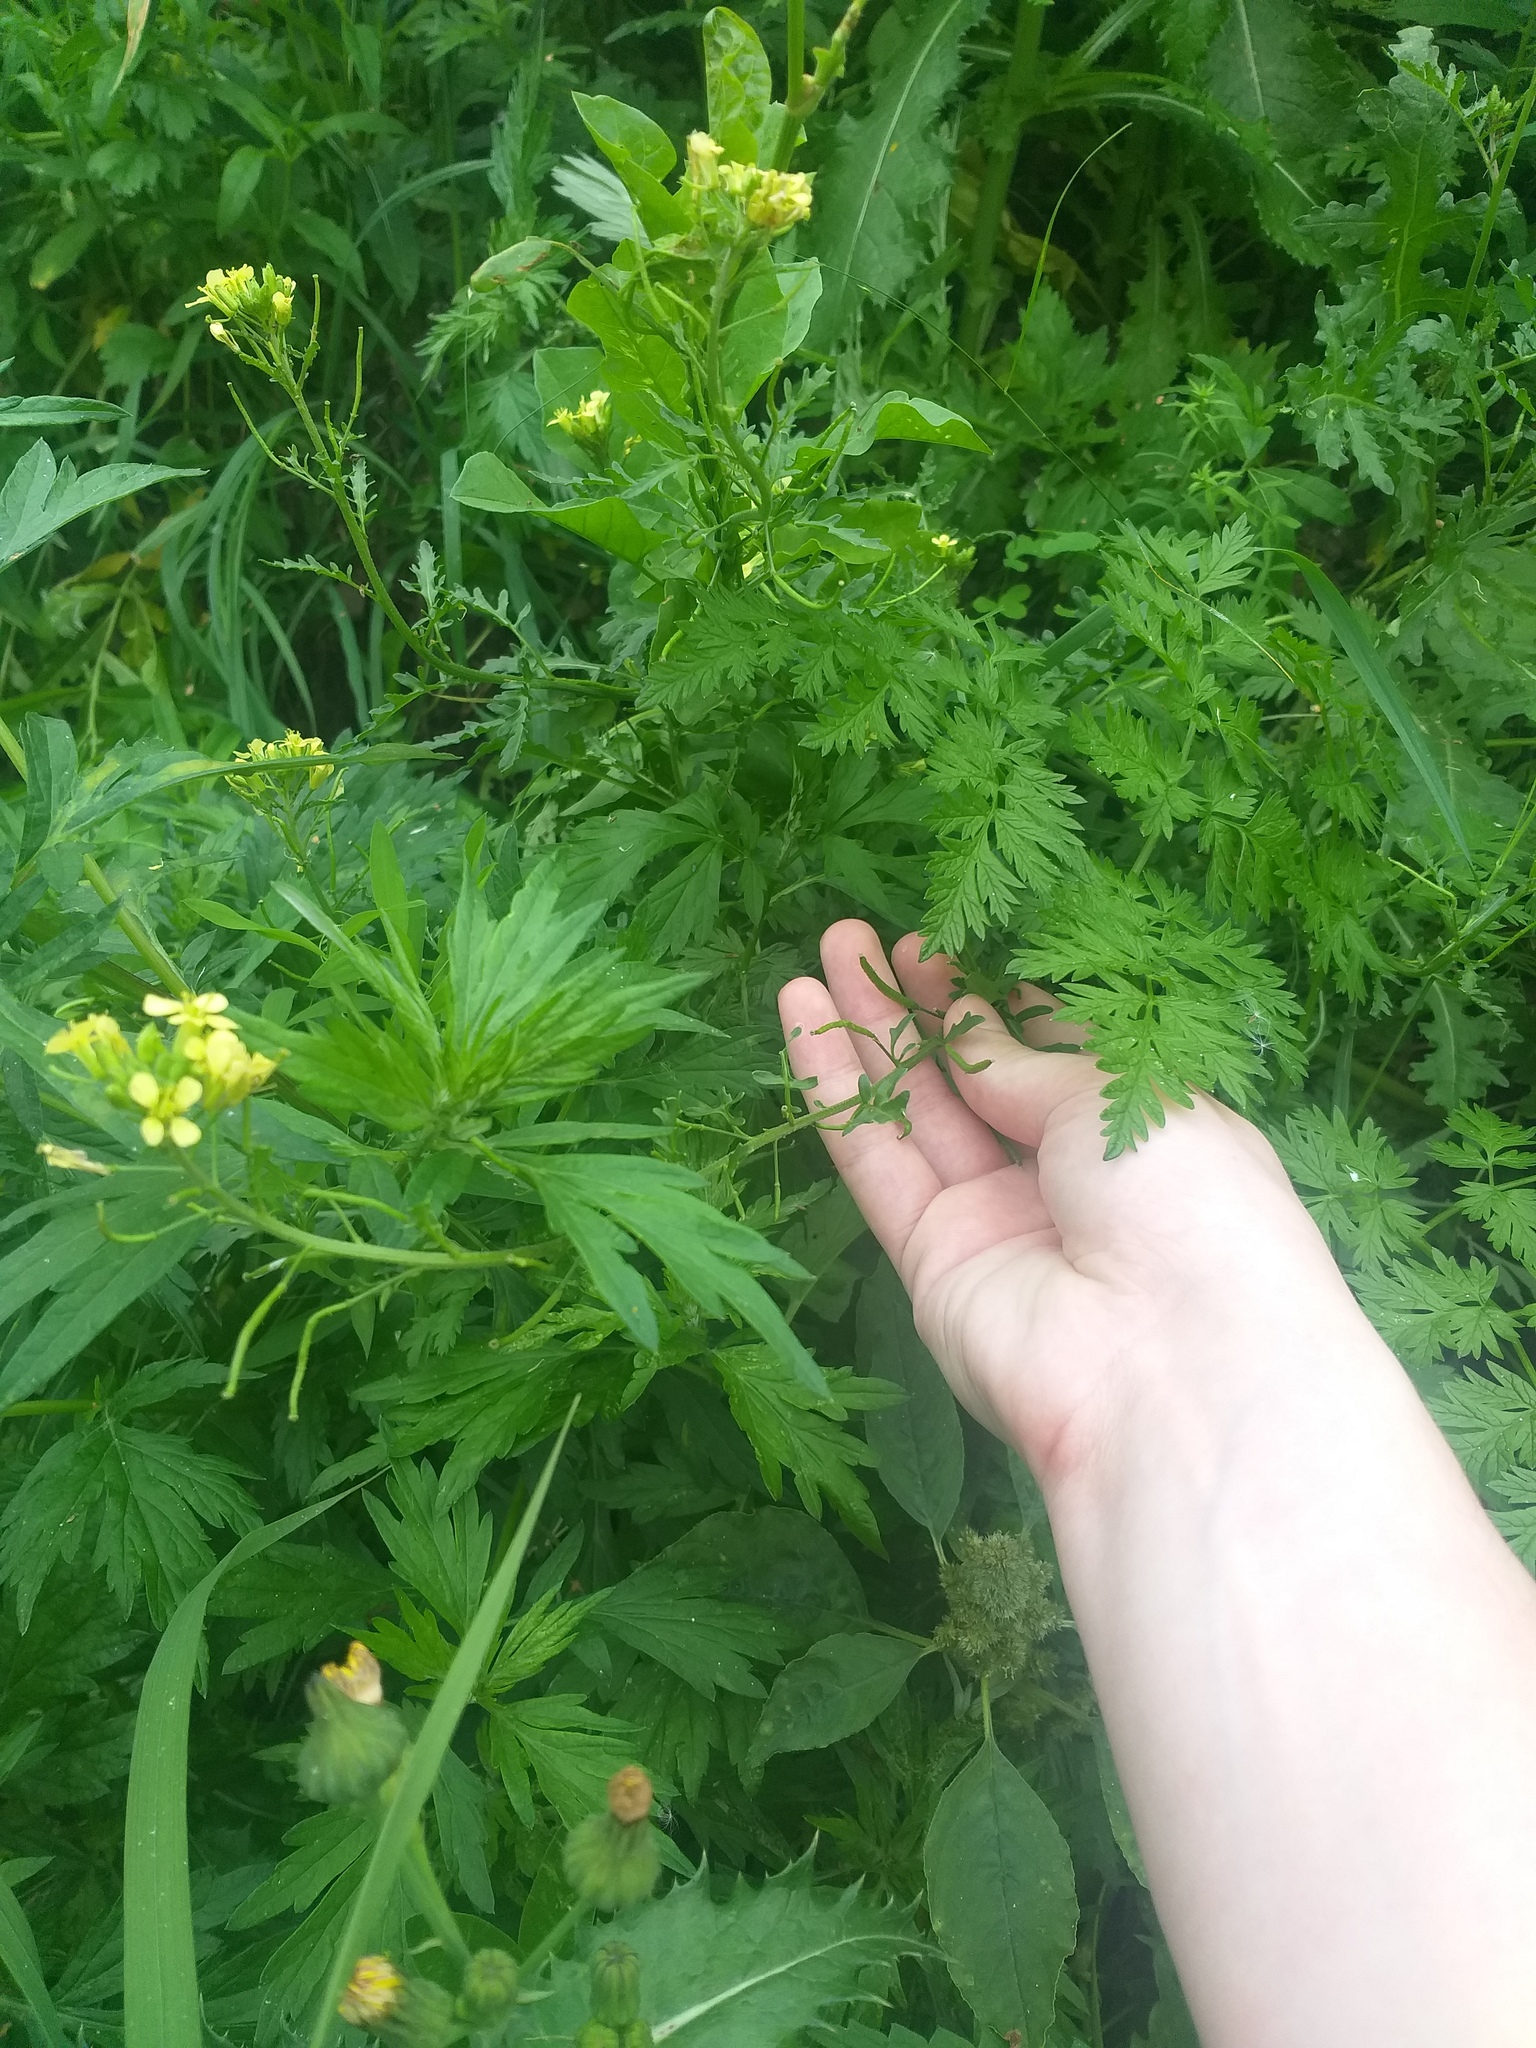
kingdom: Plantae
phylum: Tracheophyta
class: Magnoliopsida
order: Brassicales
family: Brassicaceae
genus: Erucastrum
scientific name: Erucastrum gallicum
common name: Hairy rocket
